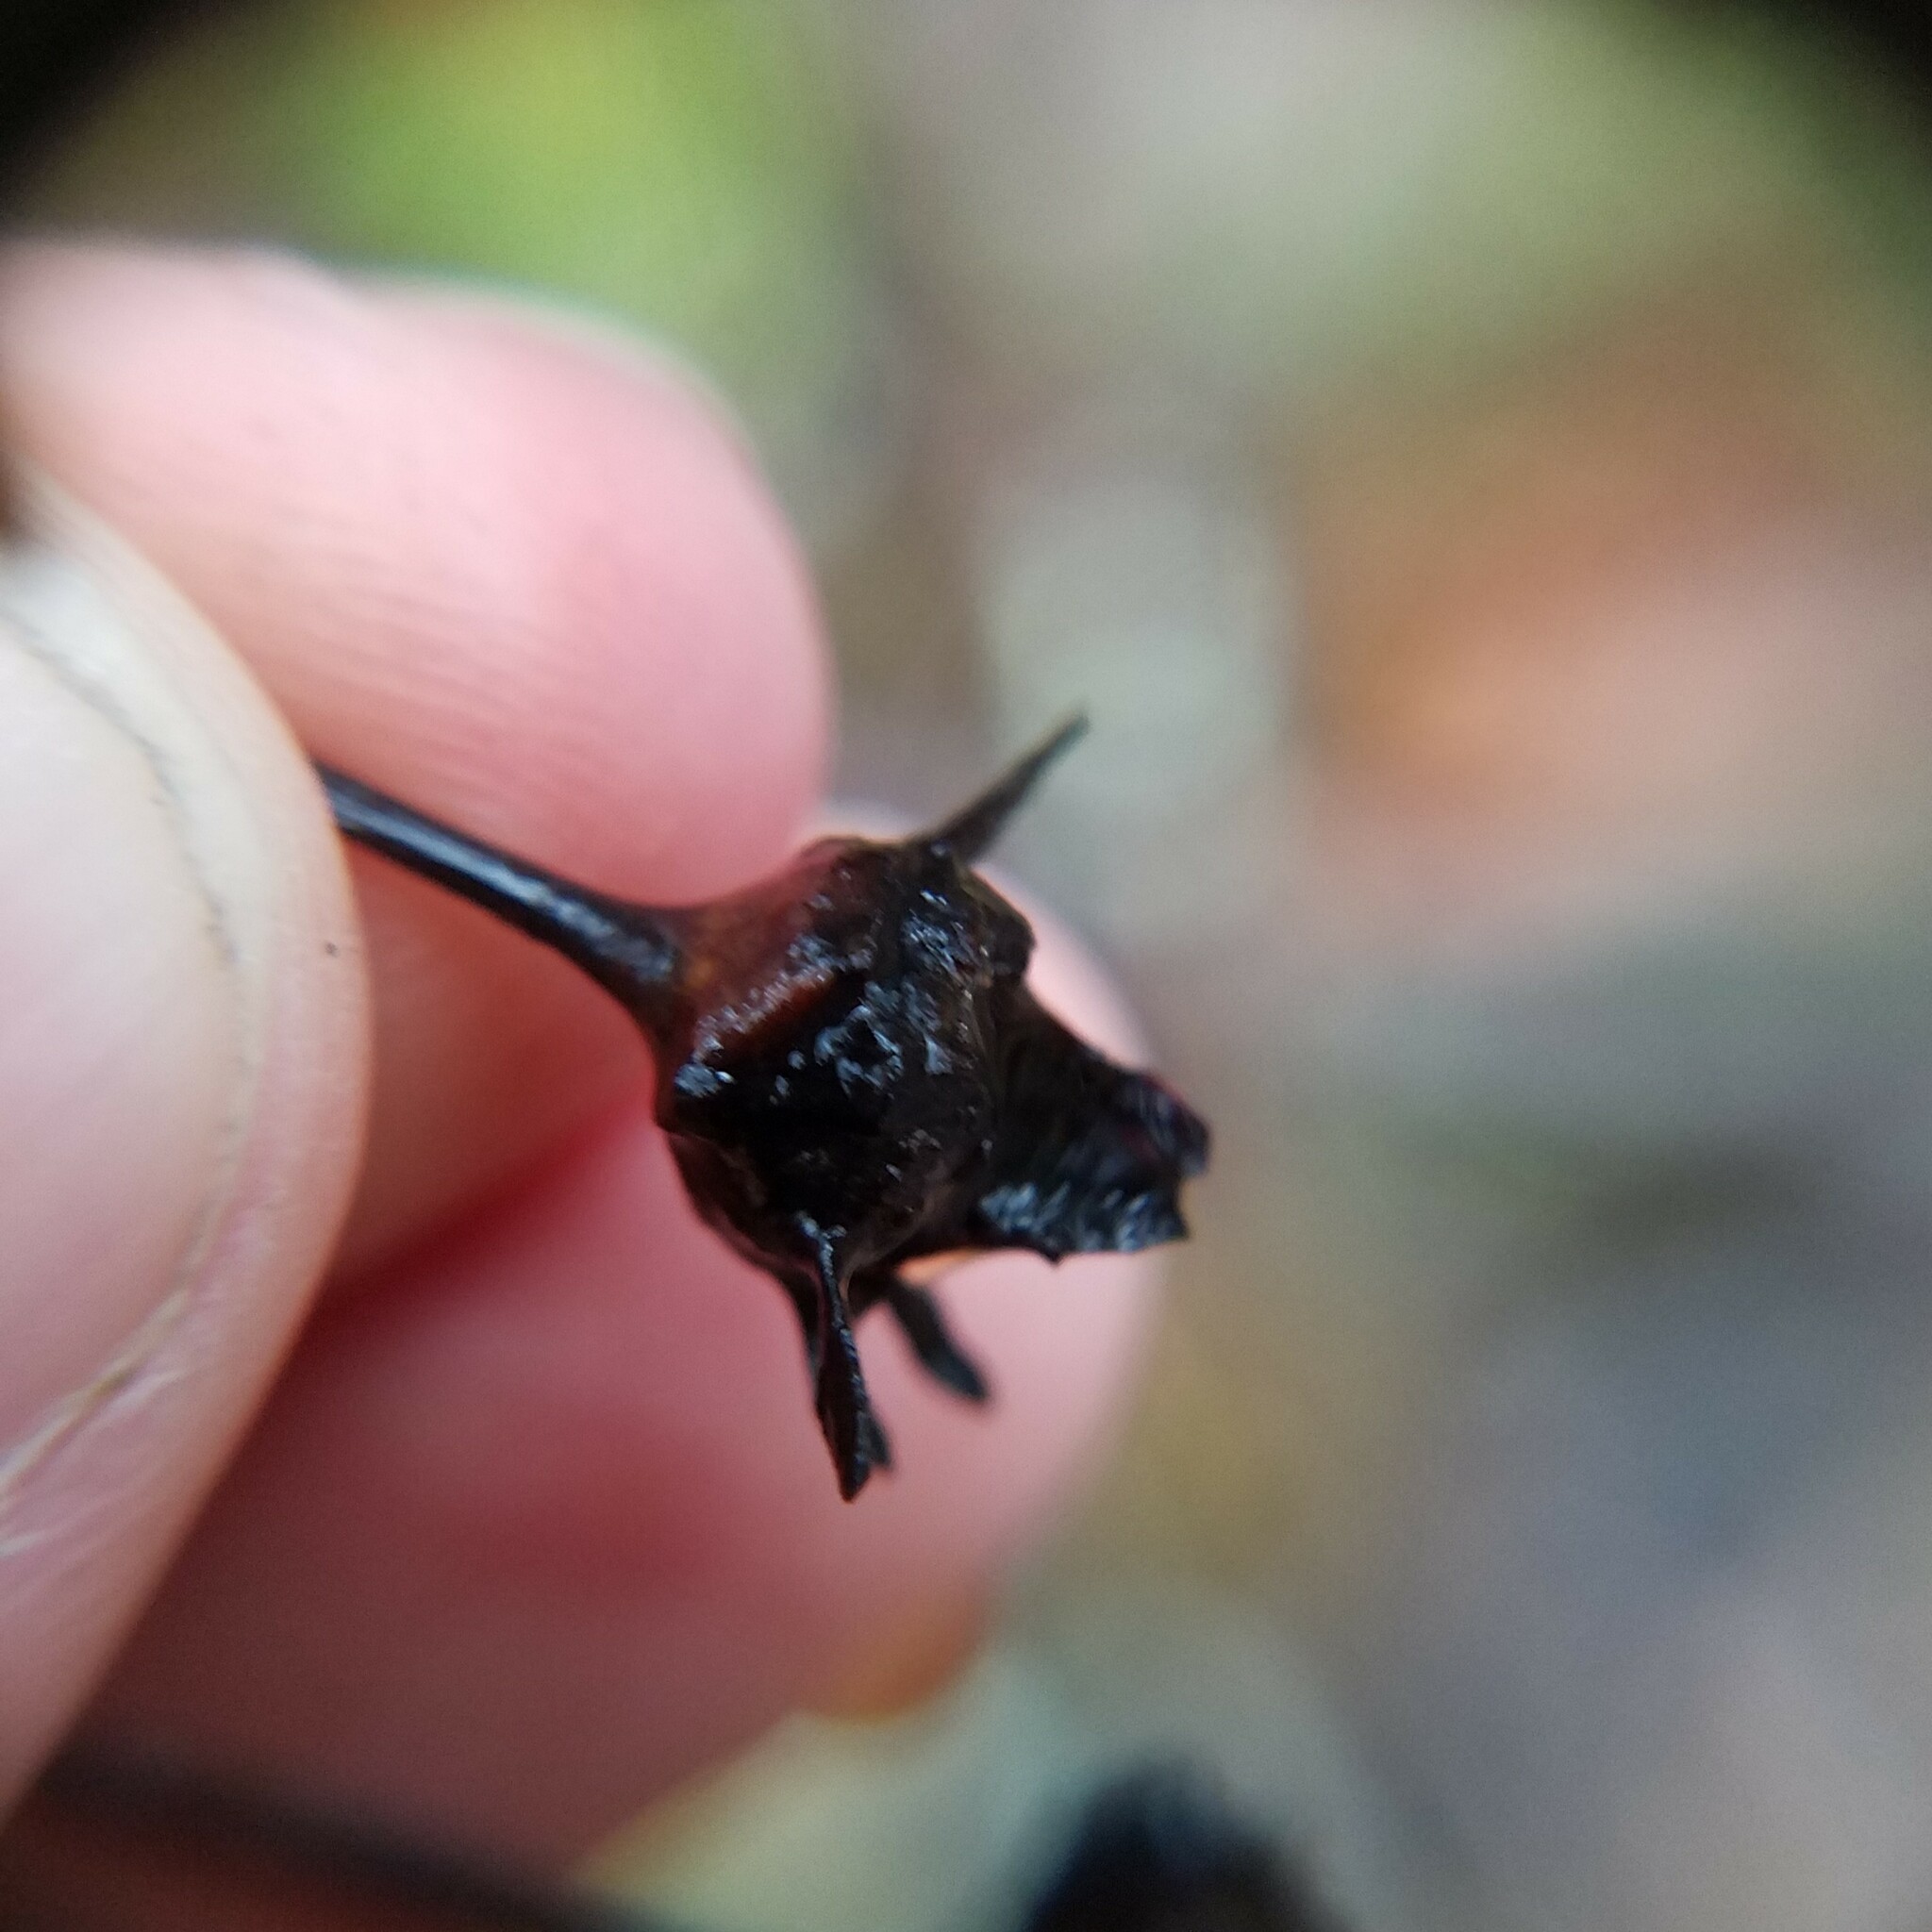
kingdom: Plantae
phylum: Tracheophyta
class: Magnoliopsida
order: Asterales
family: Asteraceae
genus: Coreopsis
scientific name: Coreopsis major
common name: Forest tickseed
